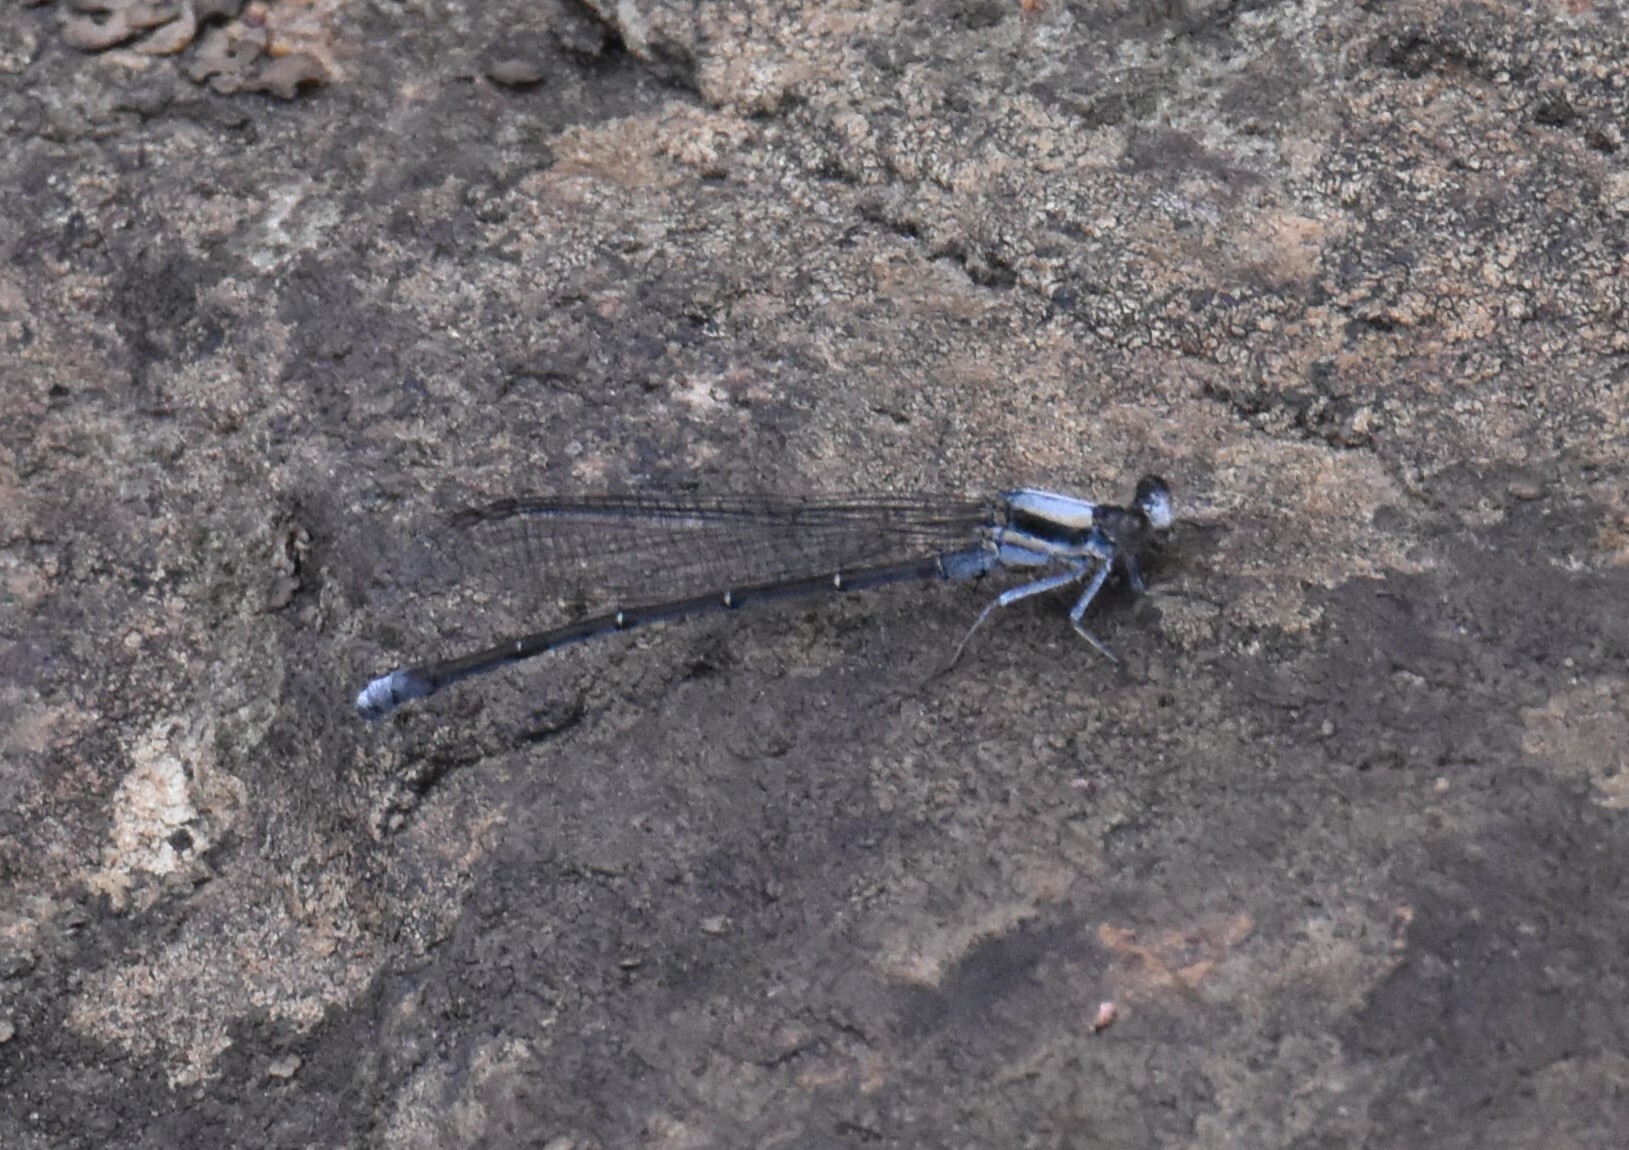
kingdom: Animalia
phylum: Arthropoda
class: Insecta
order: Odonata
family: Coenagrionidae
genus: Argia
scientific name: Argia moesta
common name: Powdered dancer
